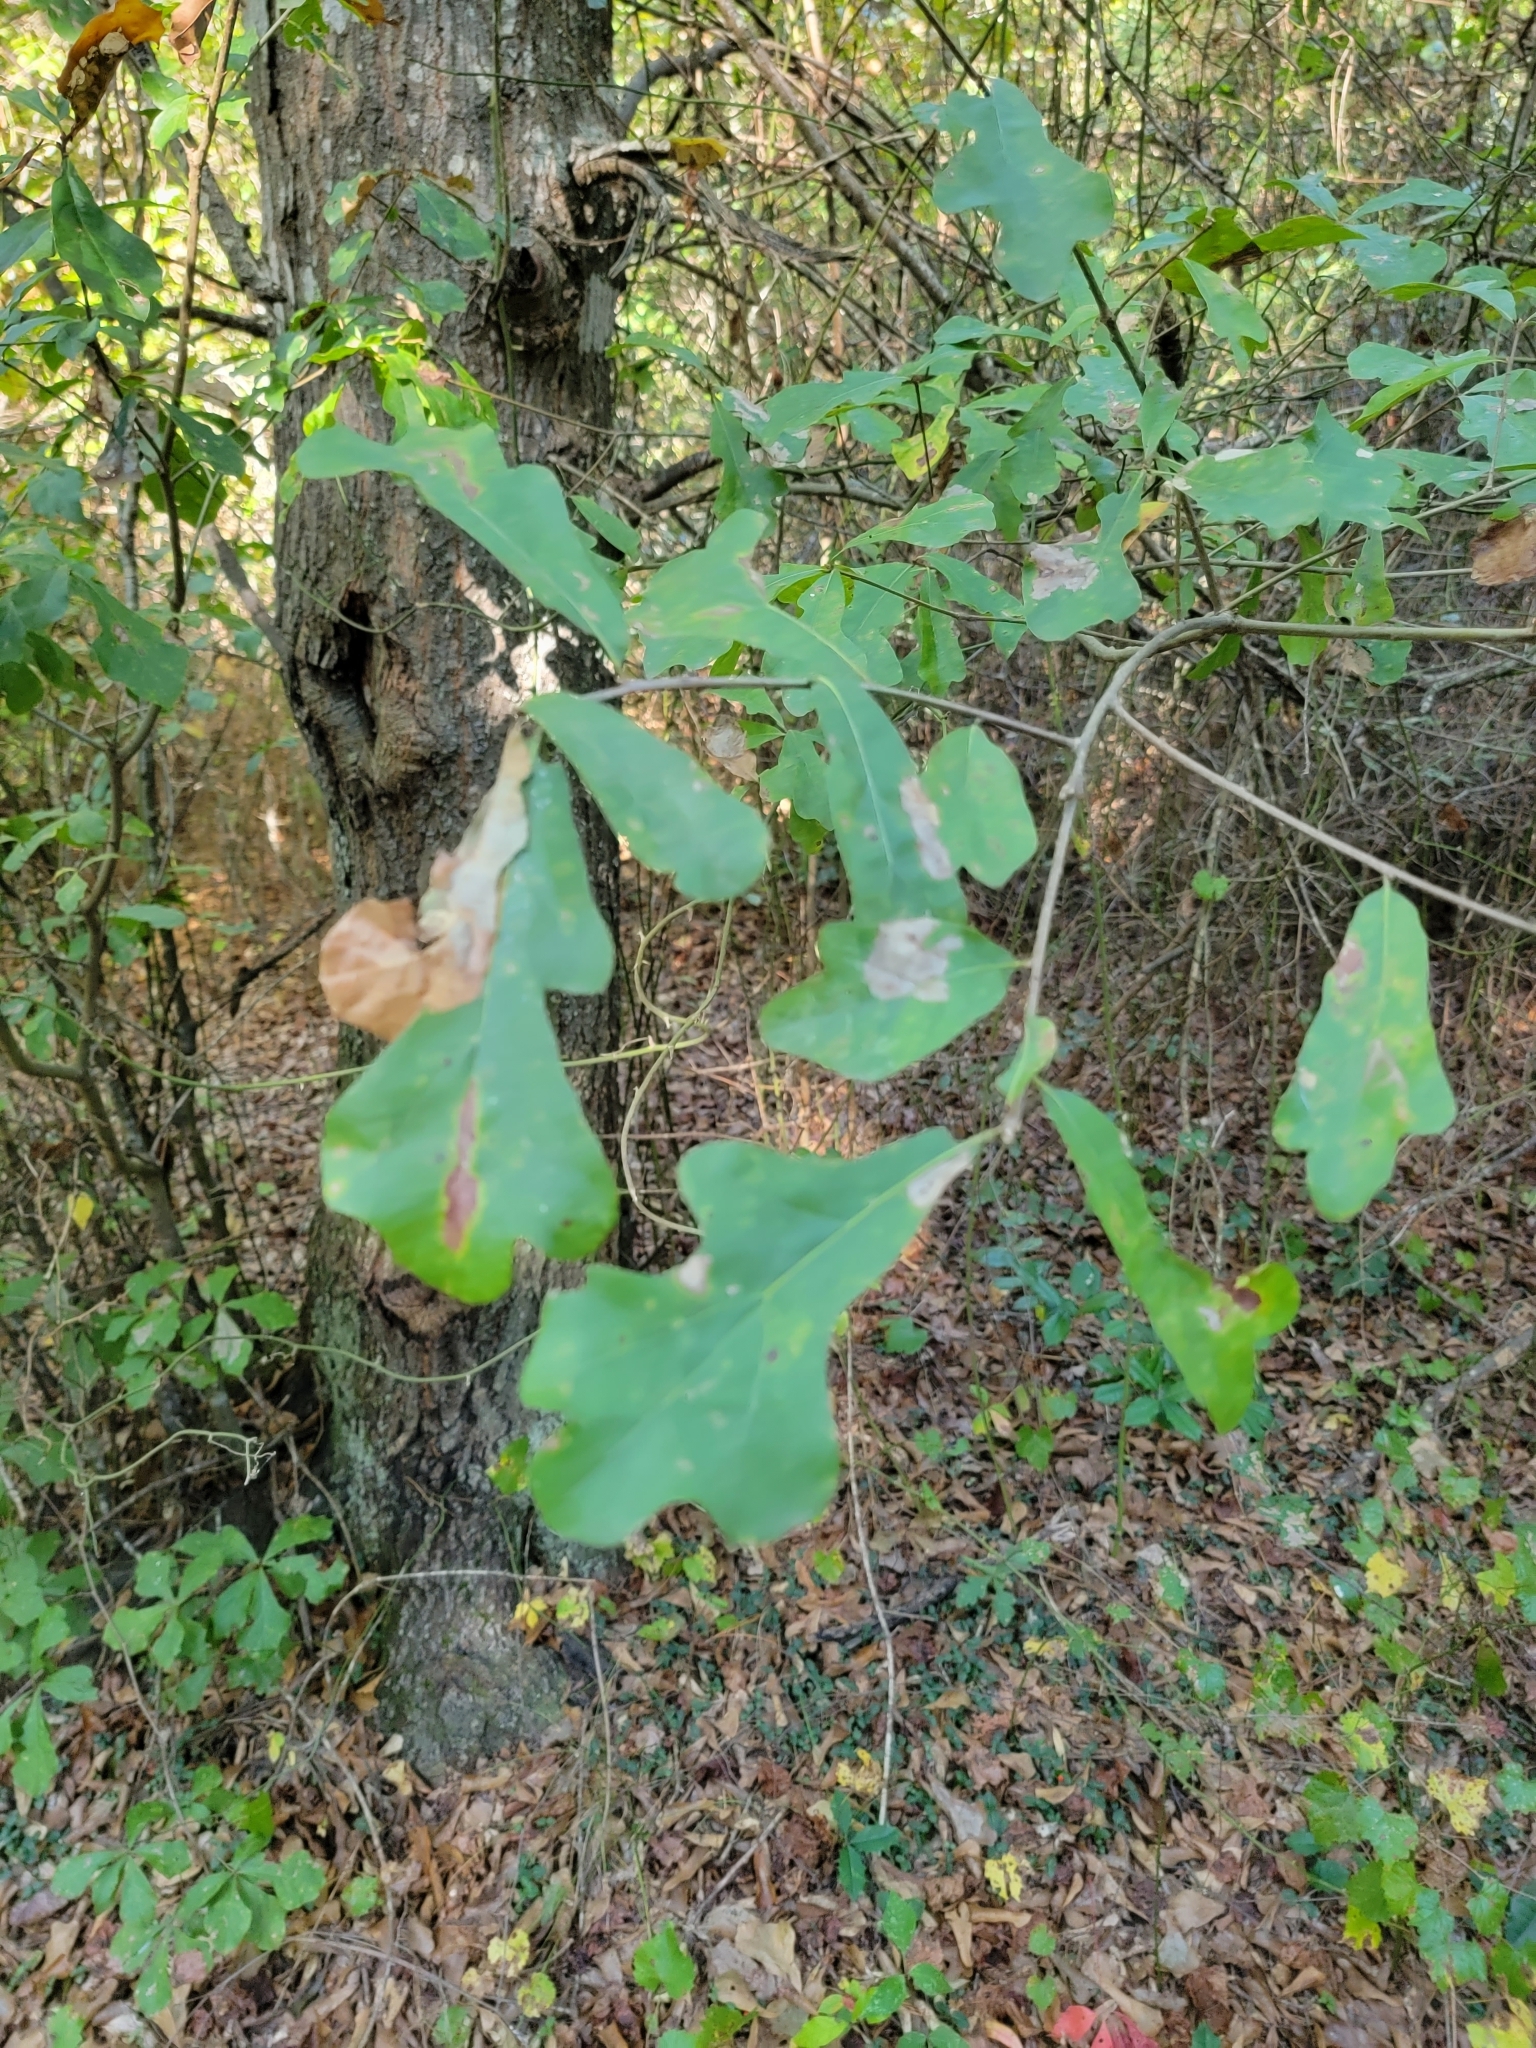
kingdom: Plantae
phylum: Tracheophyta
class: Magnoliopsida
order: Fagales
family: Fagaceae
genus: Quercus
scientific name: Quercus nigra
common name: Water oak
